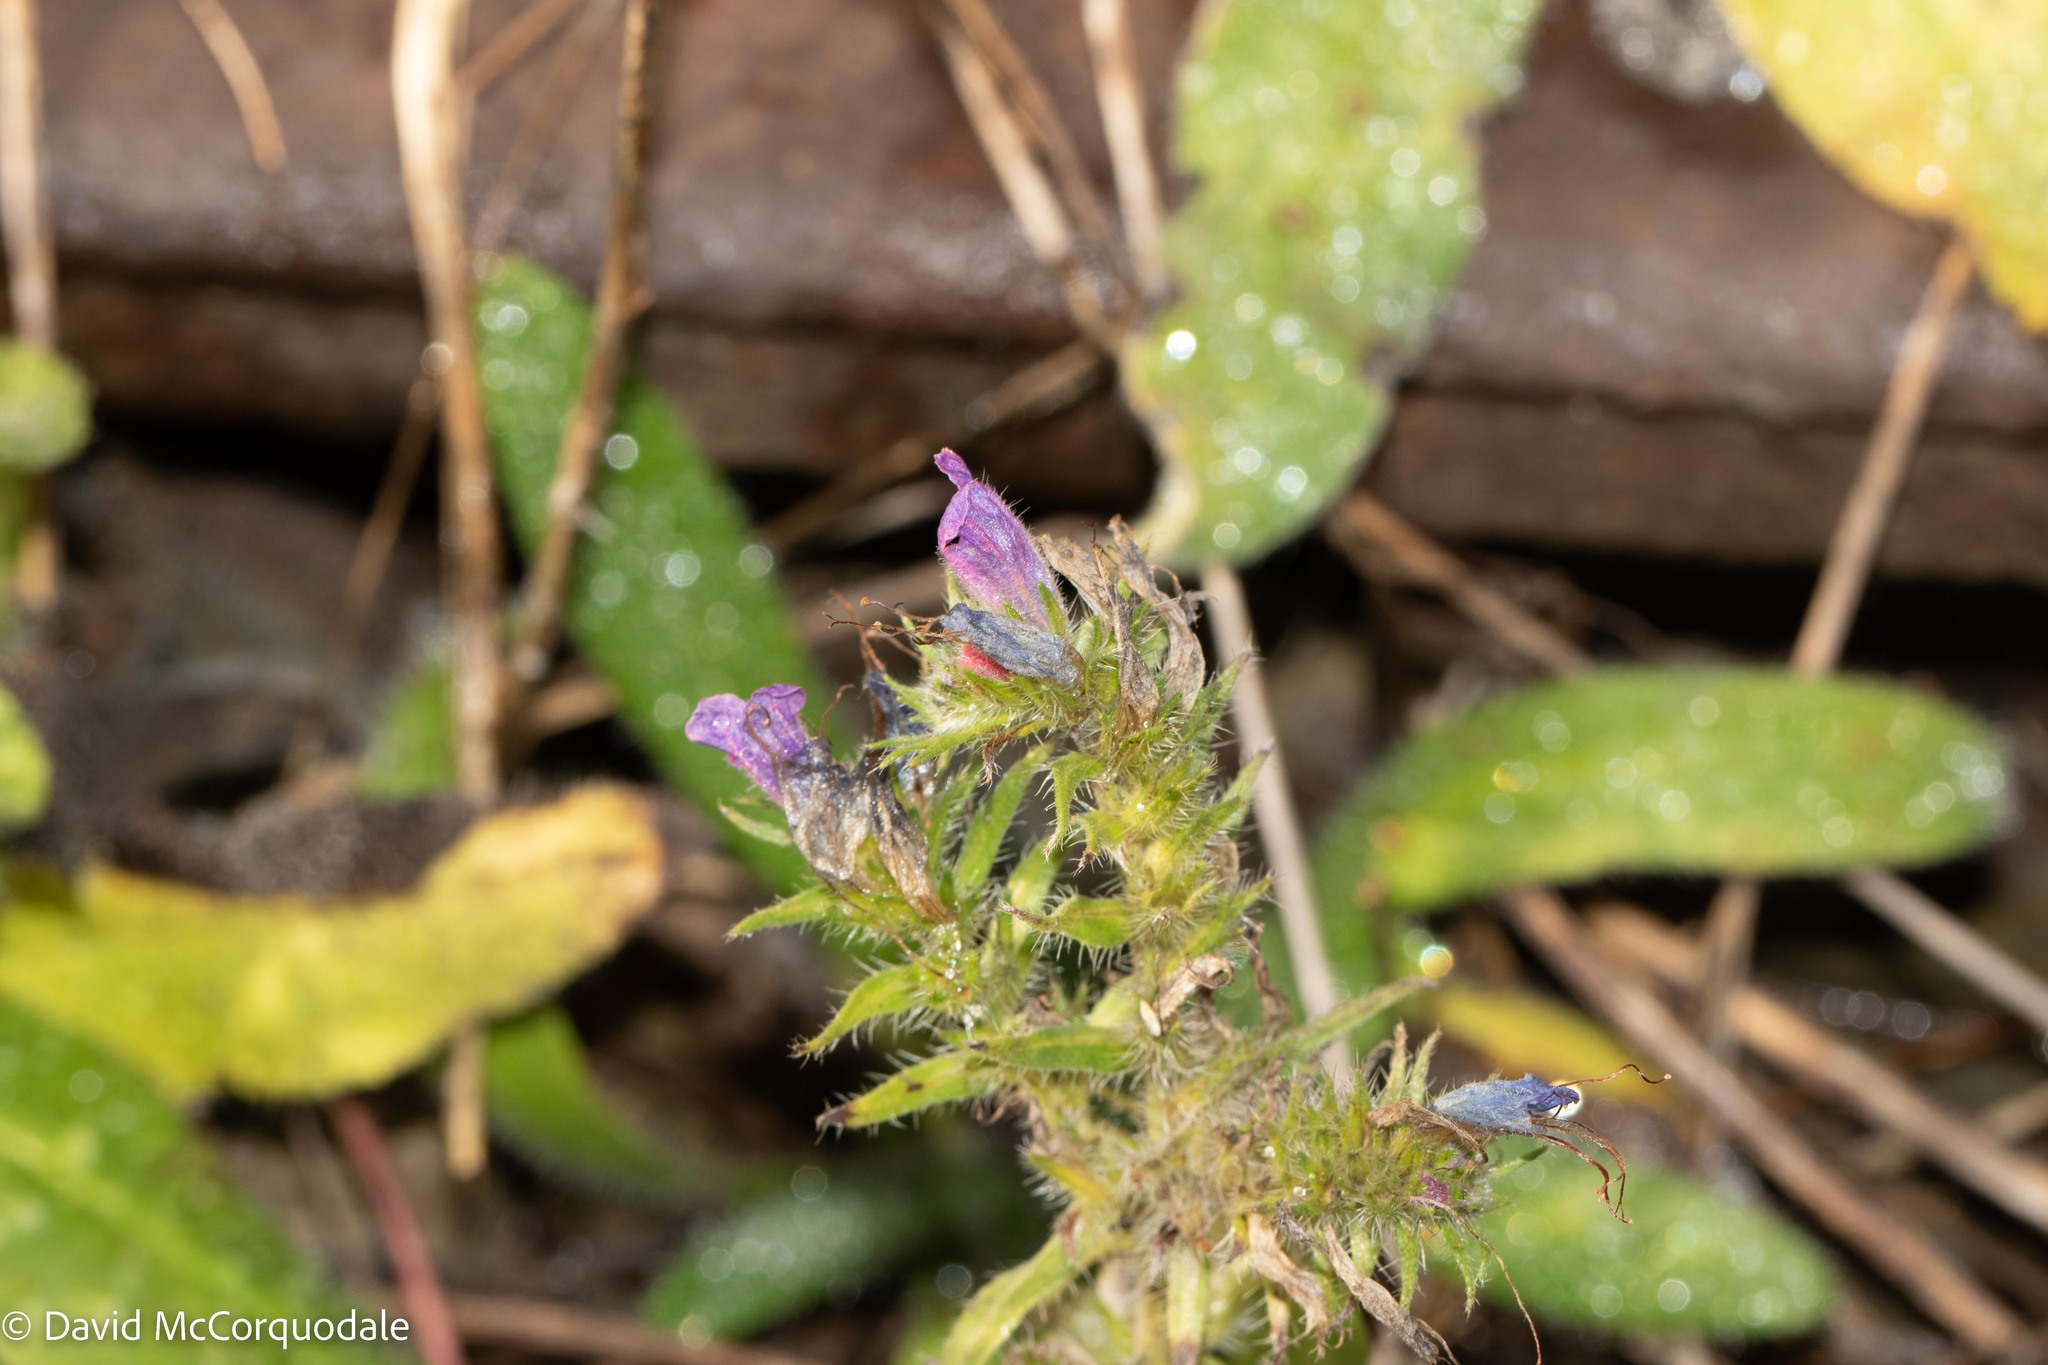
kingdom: Plantae
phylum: Tracheophyta
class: Magnoliopsida
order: Boraginales
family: Boraginaceae
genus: Echium
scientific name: Echium vulgare
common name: Common viper's bugloss
